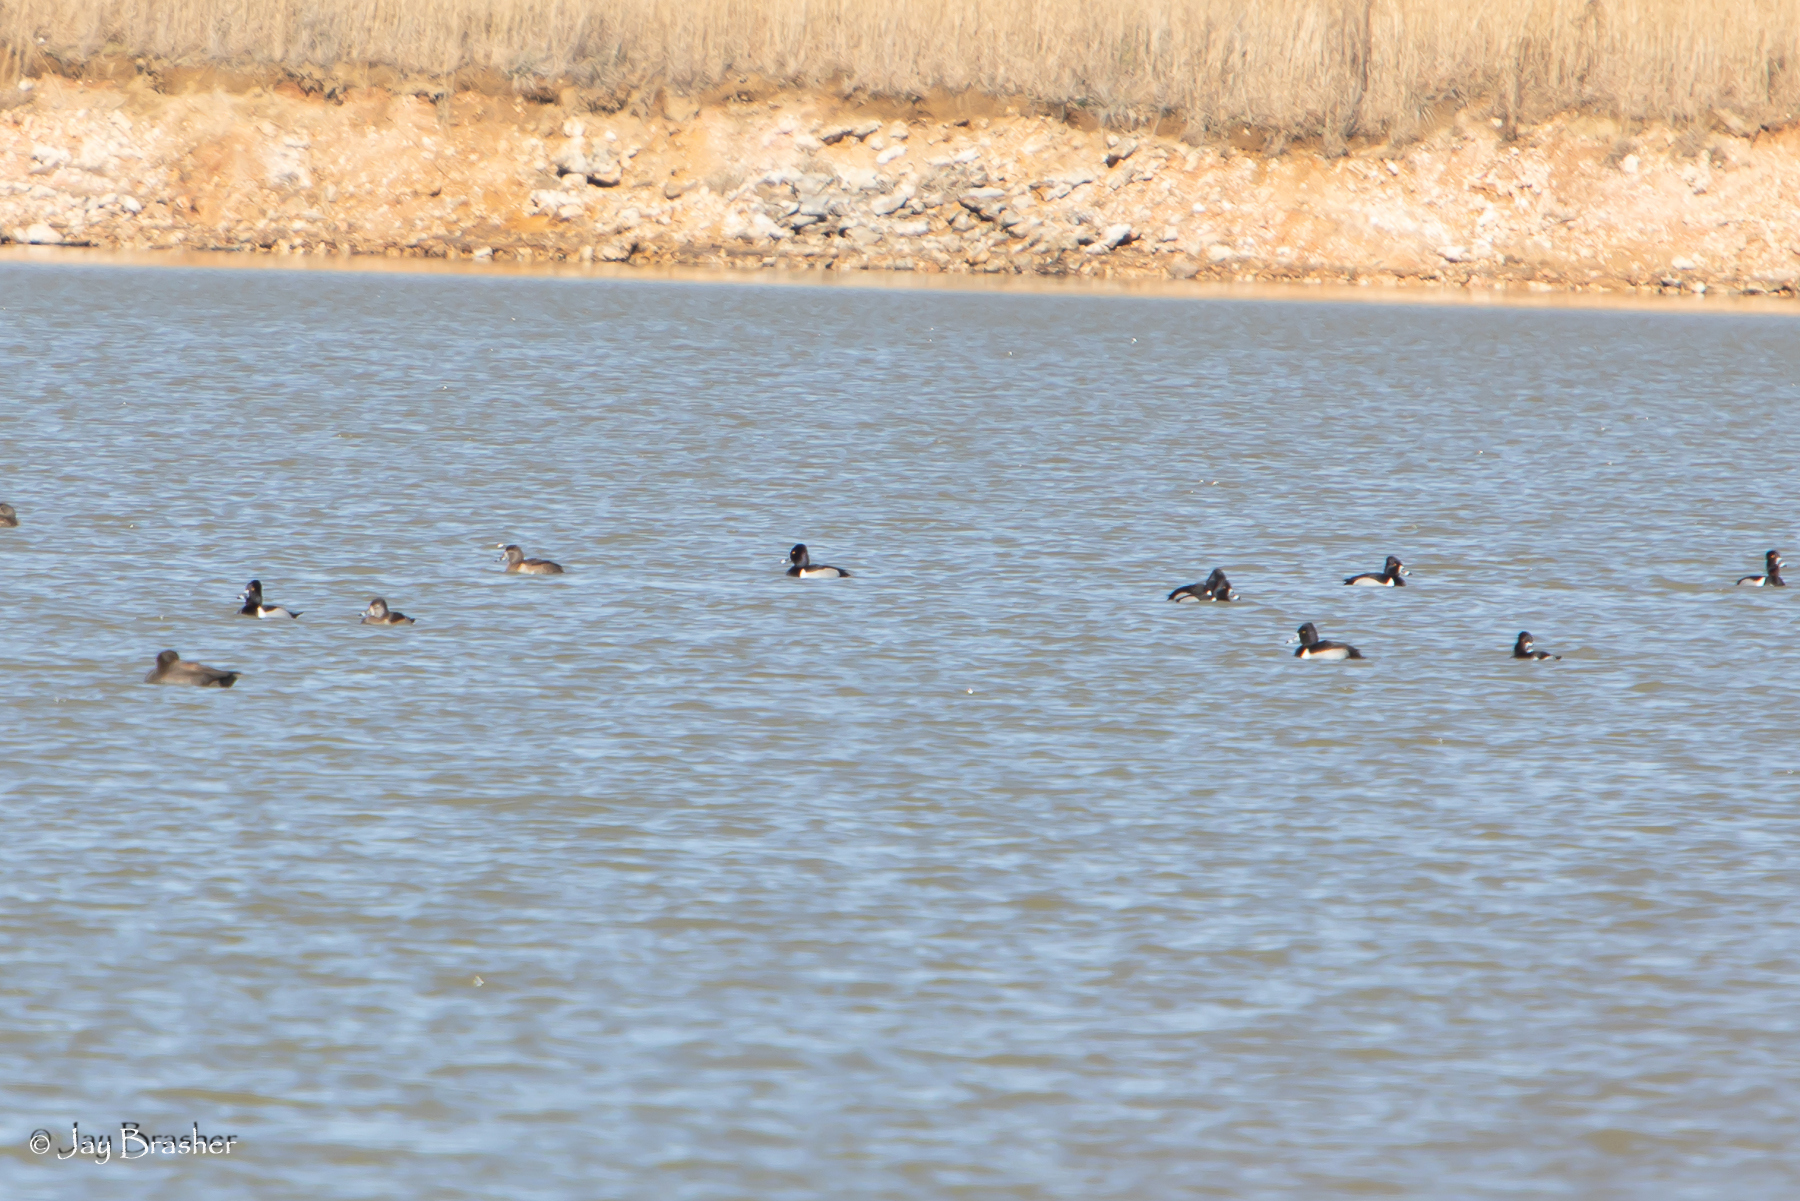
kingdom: Animalia
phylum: Chordata
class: Aves
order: Anseriformes
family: Anatidae
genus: Aythya
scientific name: Aythya collaris
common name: Ring-necked duck
